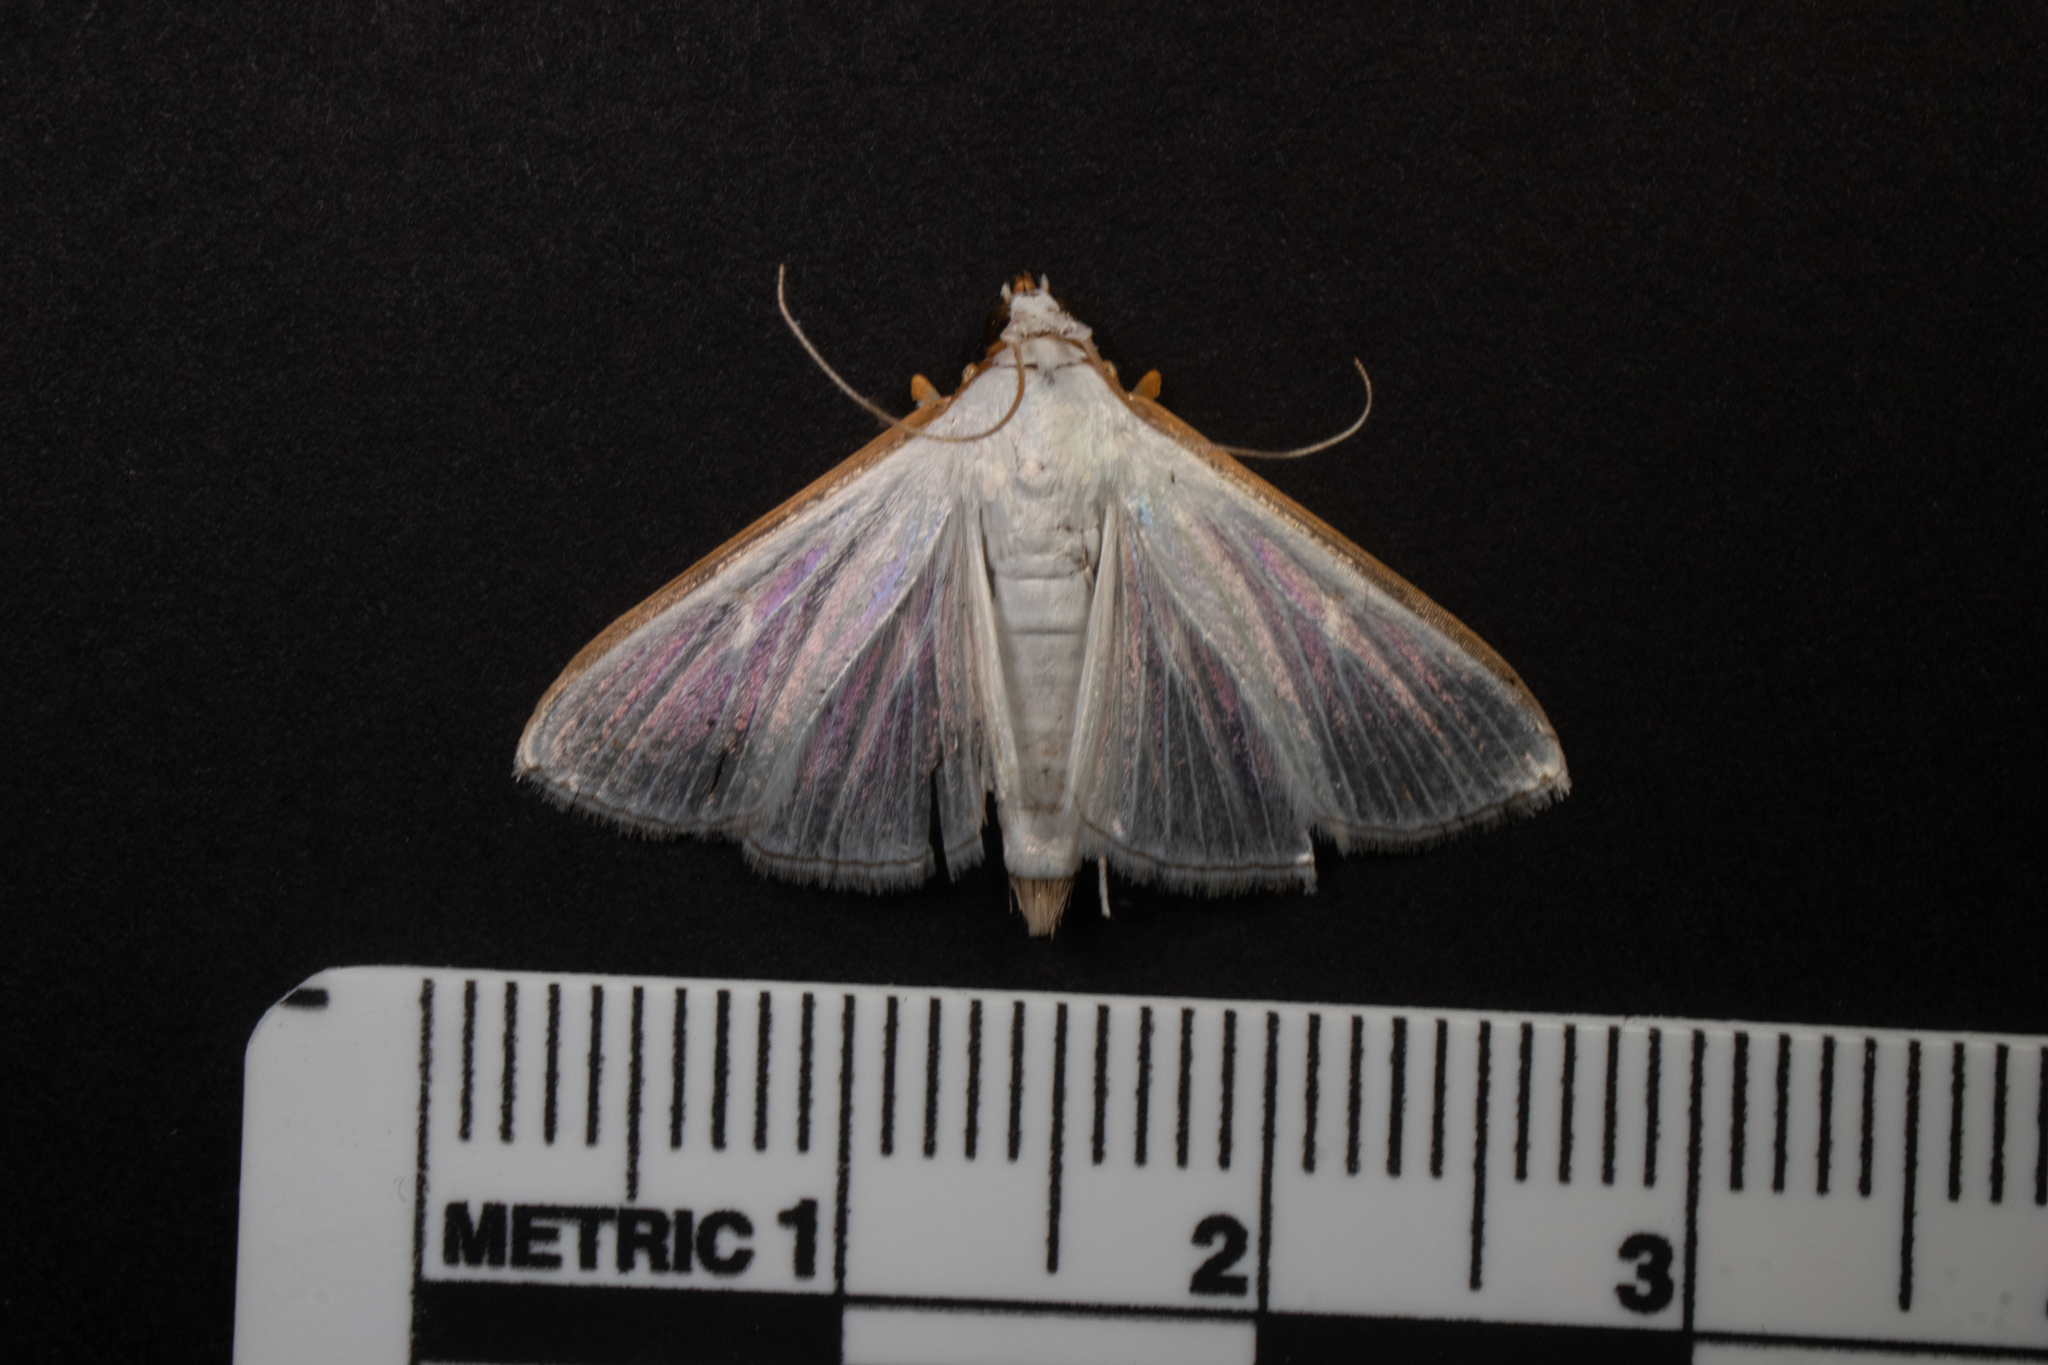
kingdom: Animalia
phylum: Arthropoda
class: Insecta
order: Lepidoptera
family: Crambidae
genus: Diaphania
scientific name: Diaphania costata
